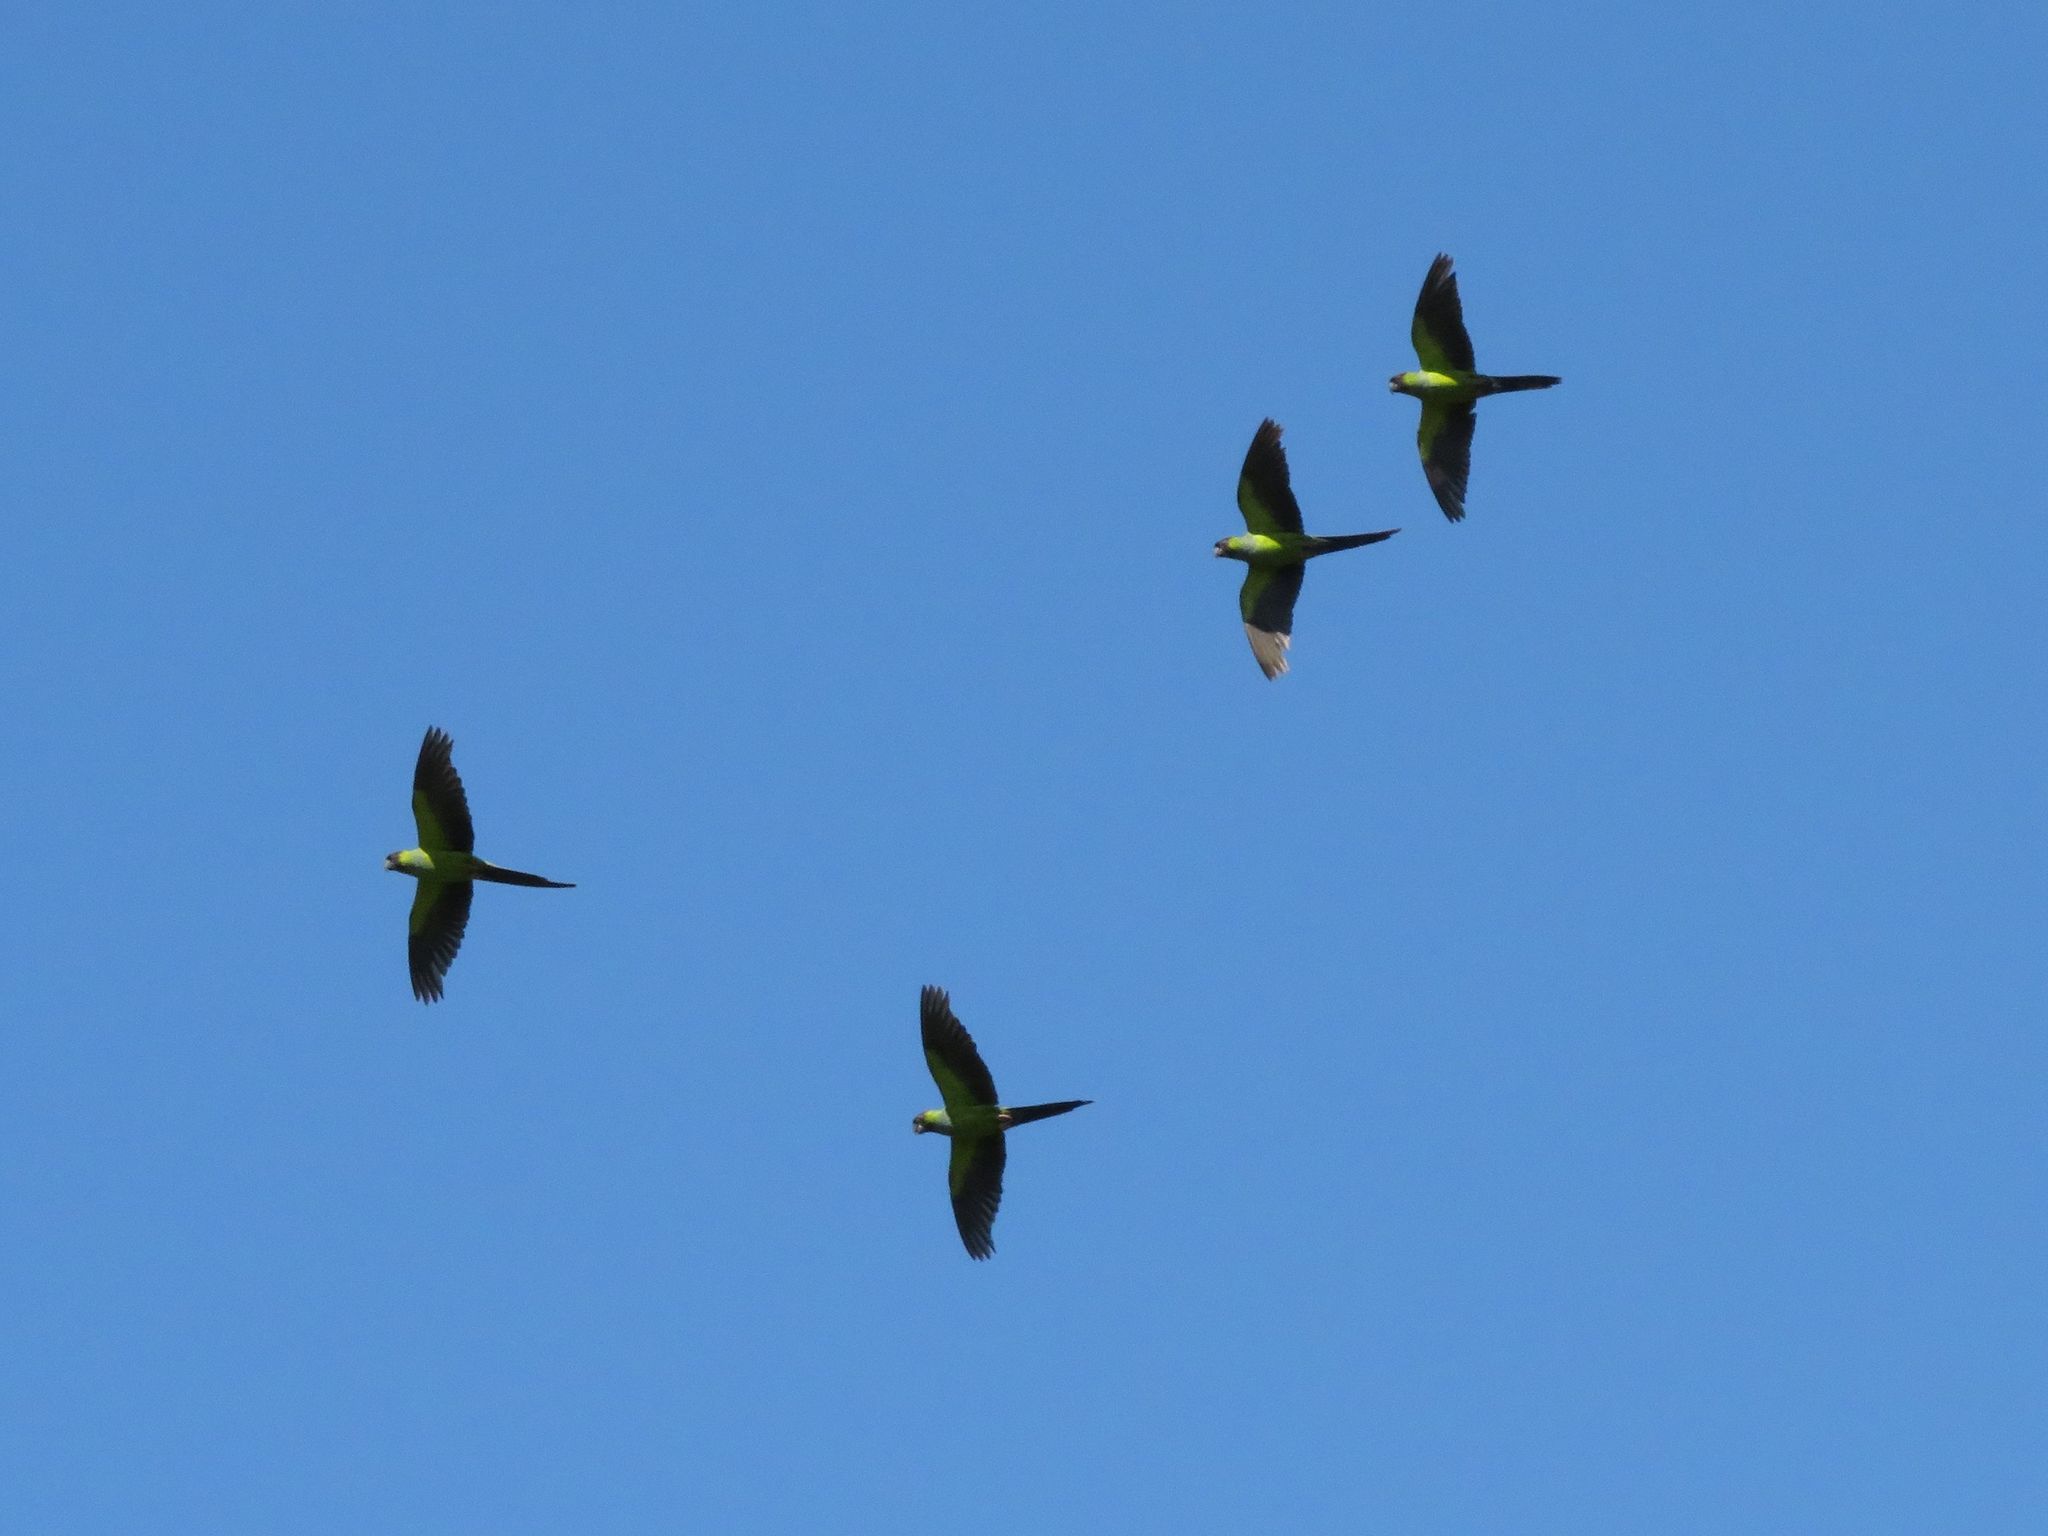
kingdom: Animalia
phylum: Chordata
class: Aves
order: Psittaciformes
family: Psittacidae
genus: Nandayus
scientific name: Nandayus nenday
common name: Nanday parakeet
